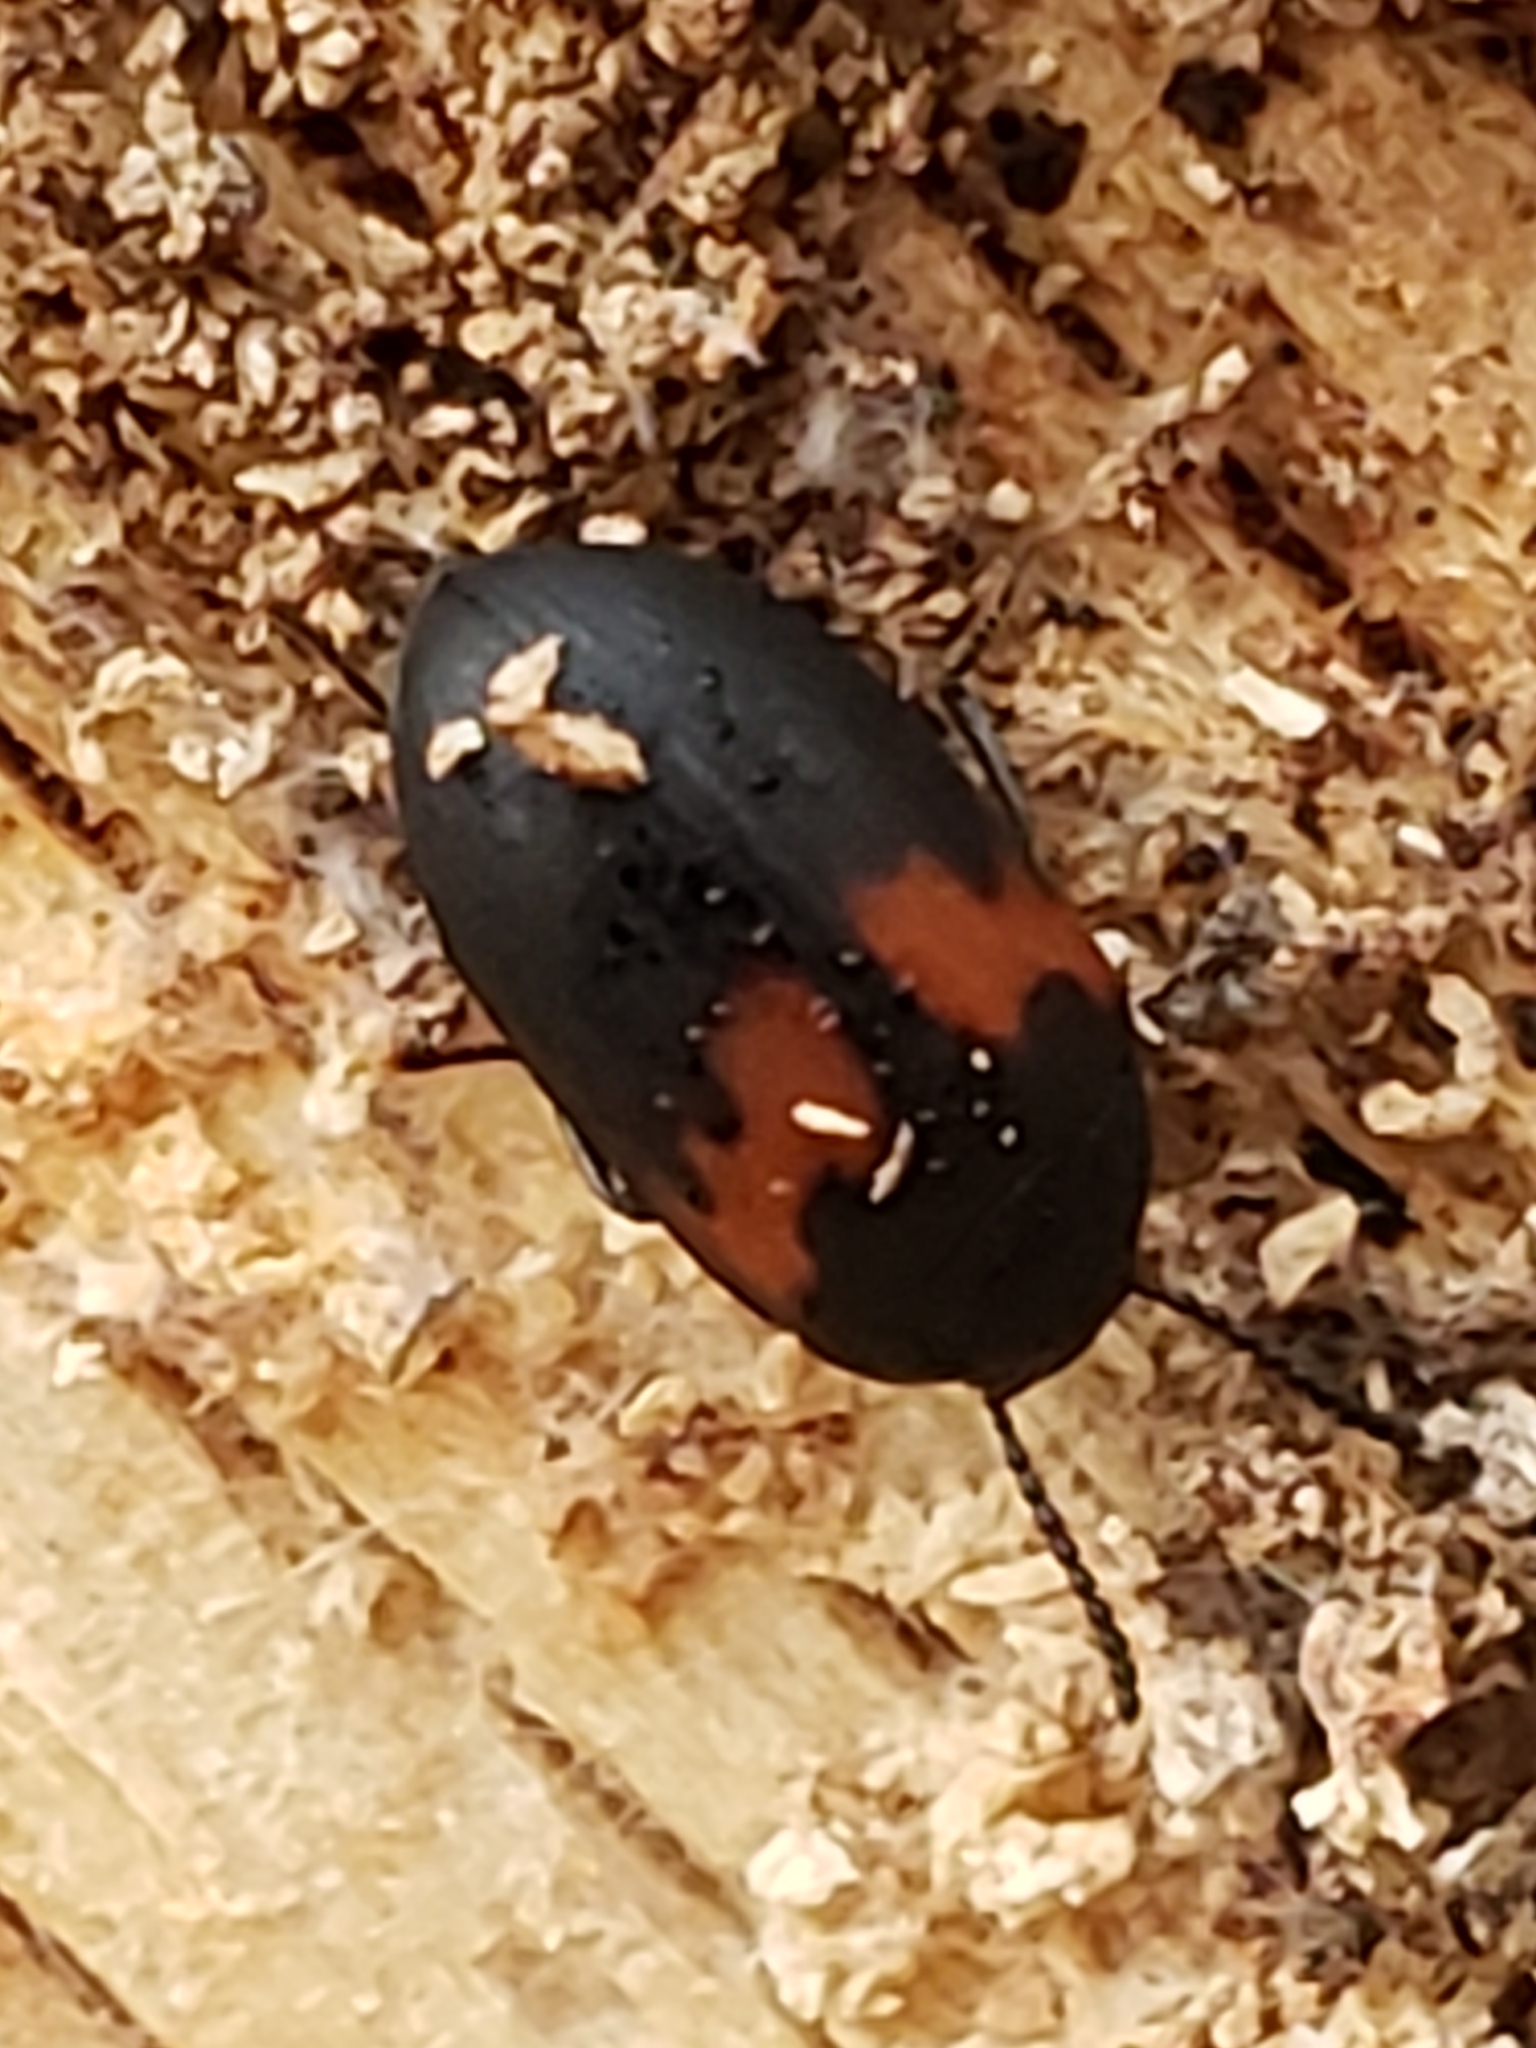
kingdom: Animalia
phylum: Arthropoda
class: Insecta
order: Coleoptera
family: Tenebrionidae
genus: Platydema
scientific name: Platydema elliptica
